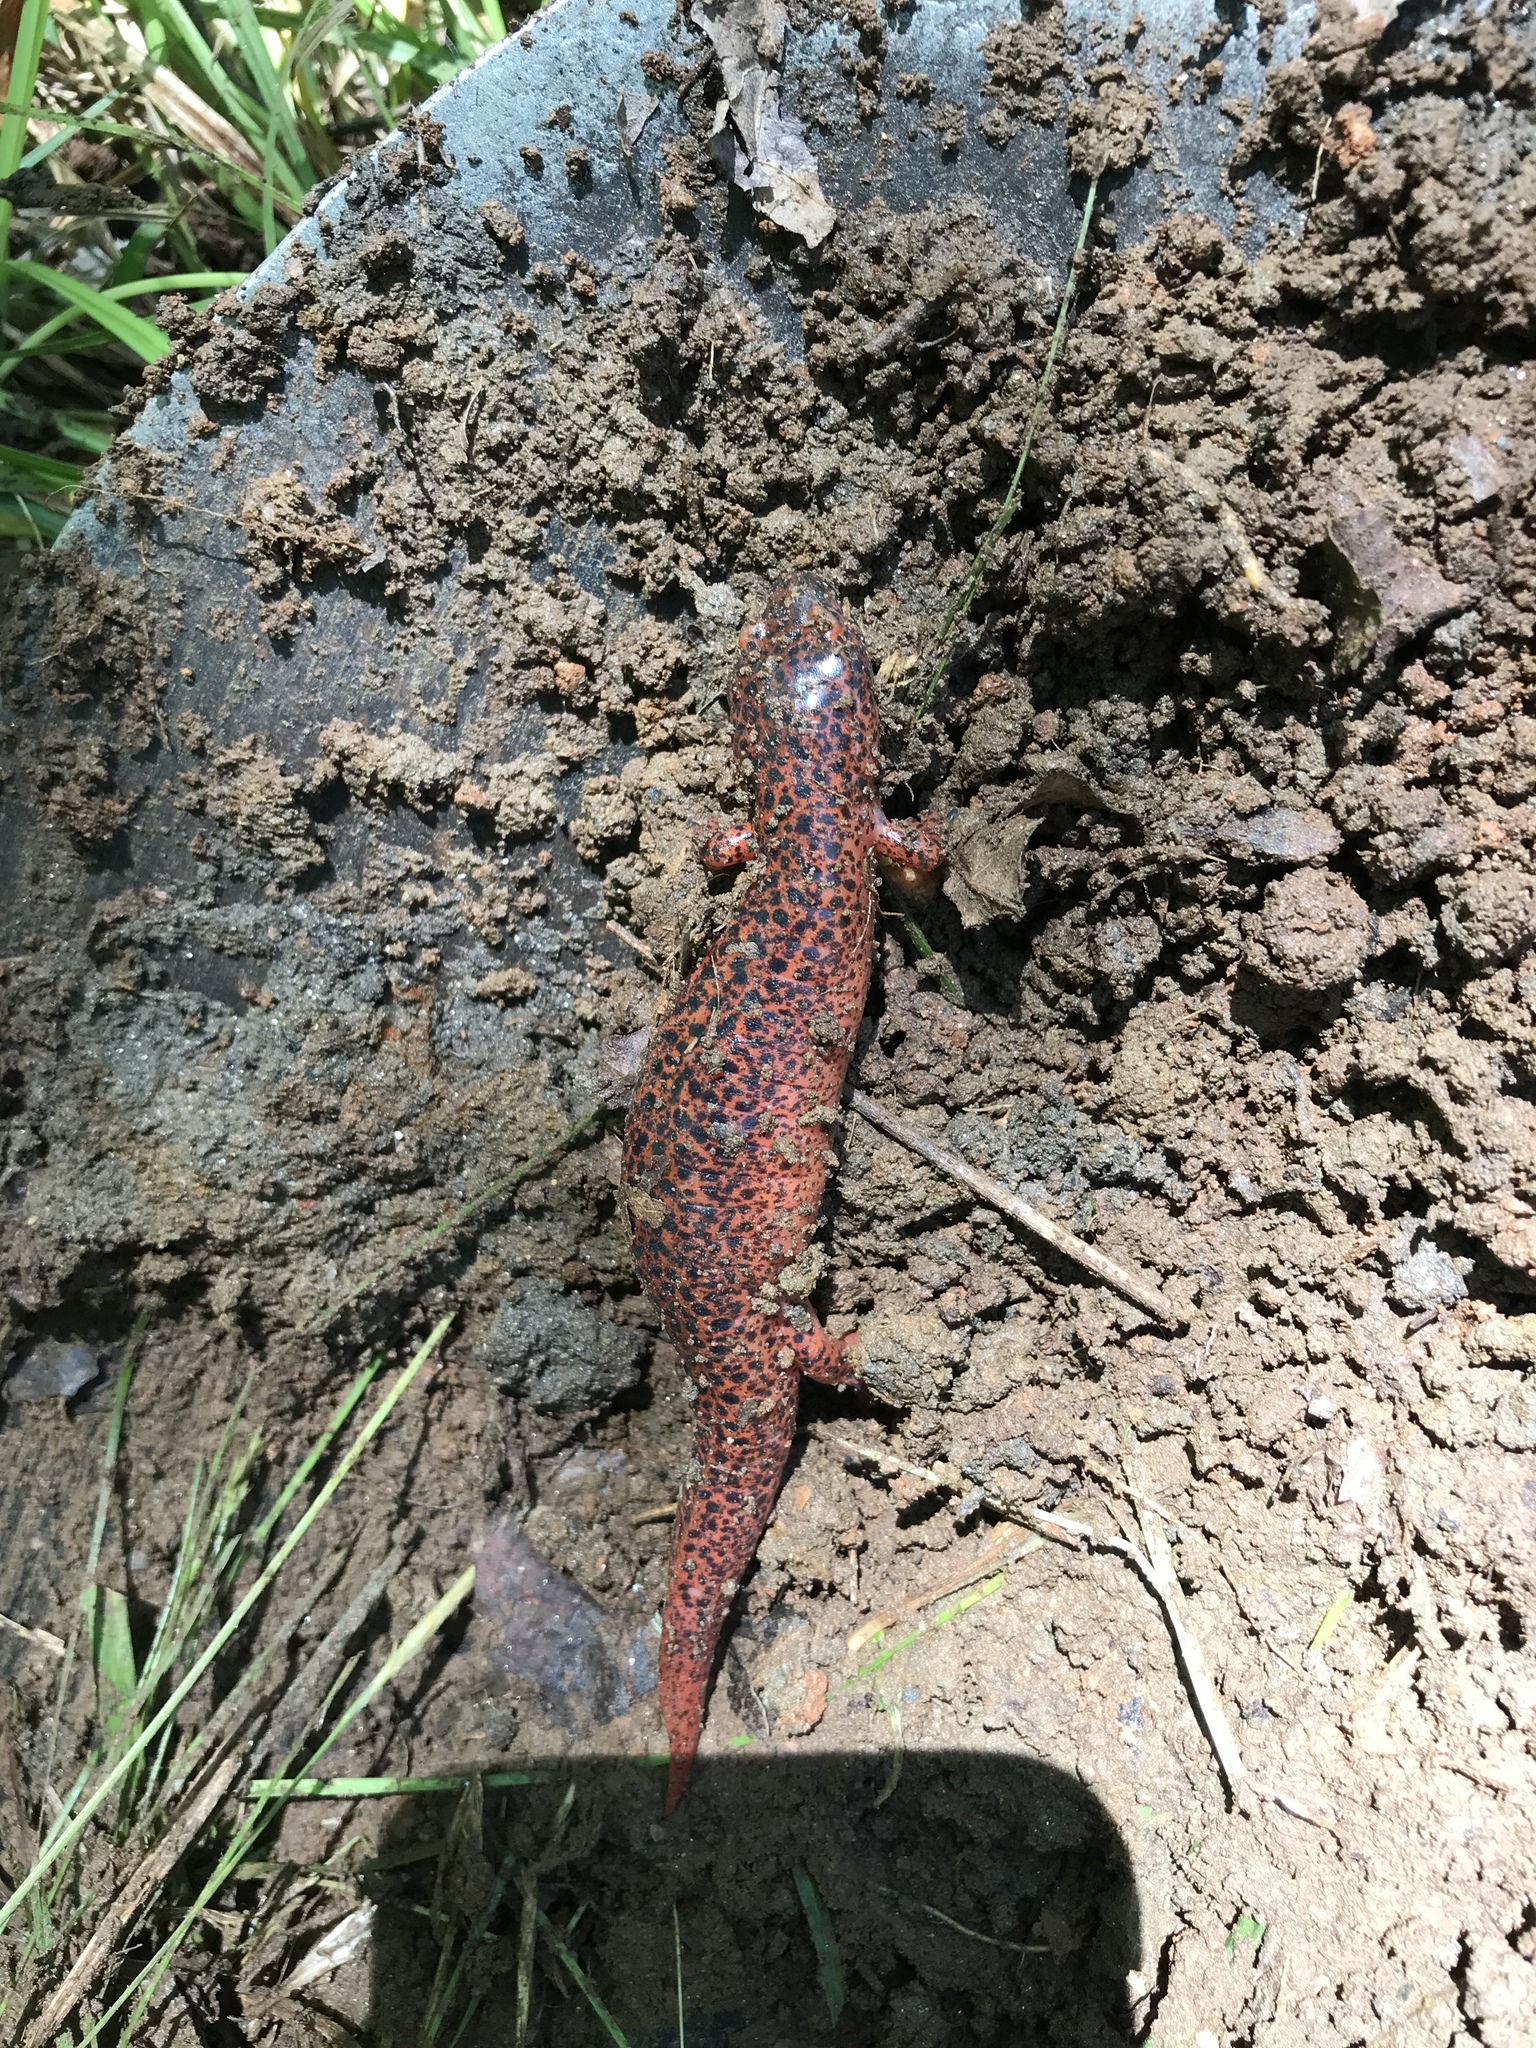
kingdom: Animalia
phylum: Chordata
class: Amphibia
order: Caudata
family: Plethodontidae
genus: Pseudotriton
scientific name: Pseudotriton ruber
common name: Red salamander
